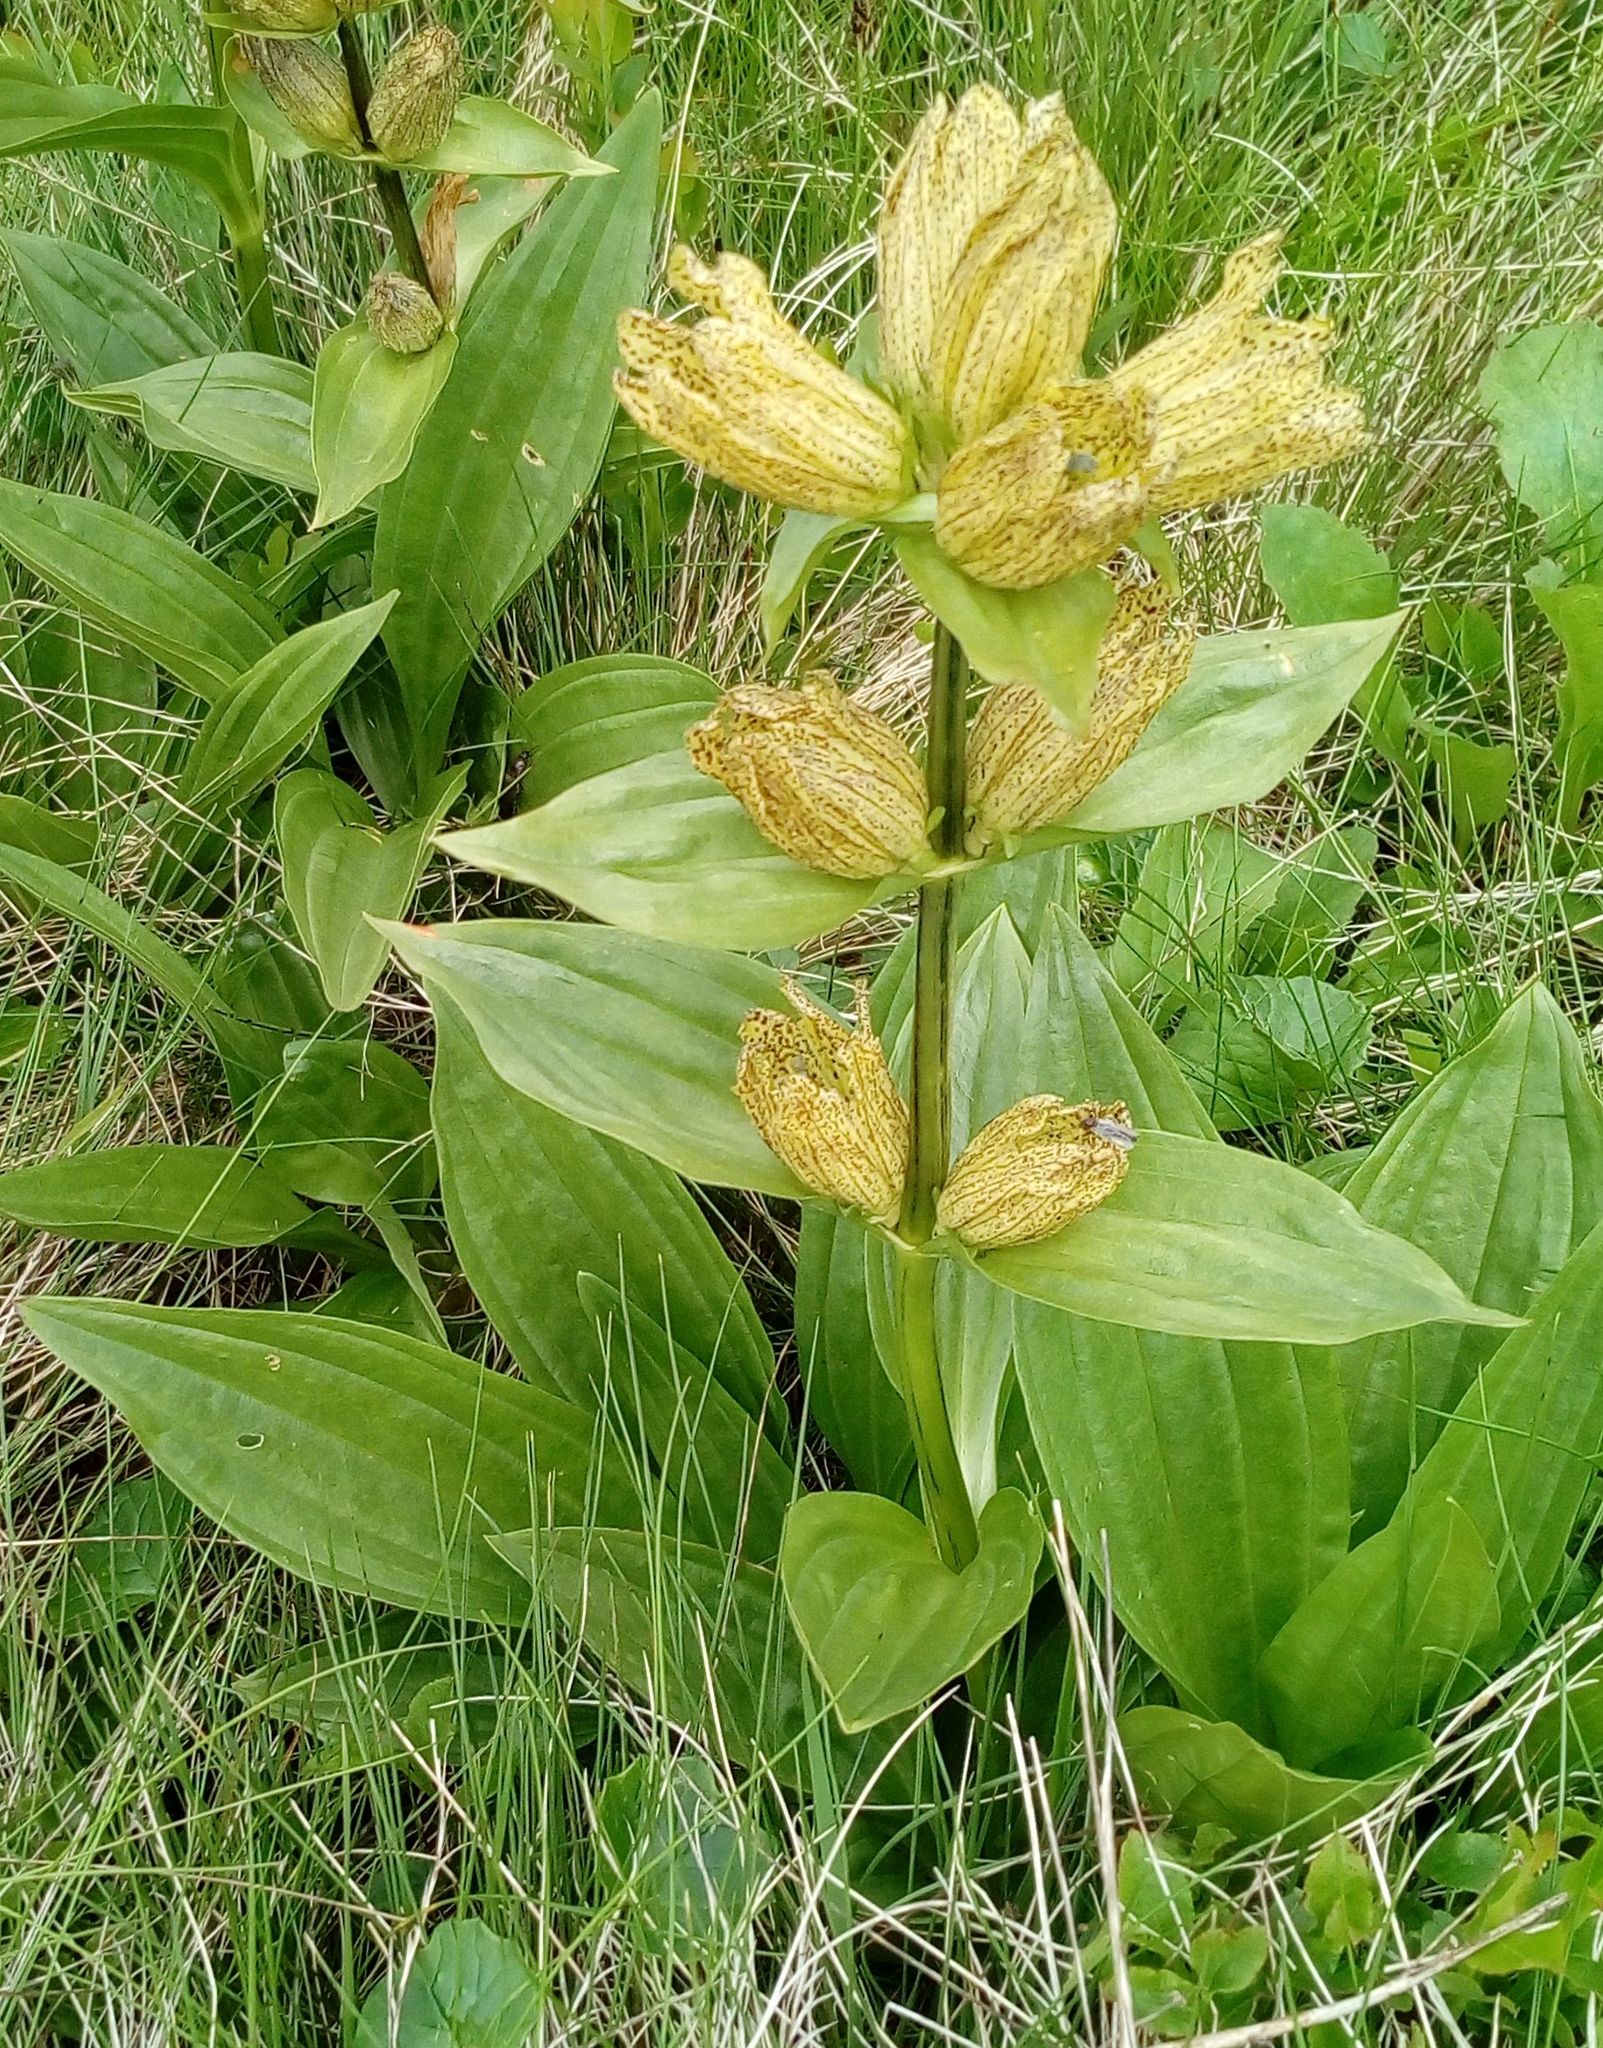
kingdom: Plantae
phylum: Tracheophyta
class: Magnoliopsida
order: Gentianales
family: Gentianaceae
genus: Gentiana
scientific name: Gentiana punctata
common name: Spotted gentian
